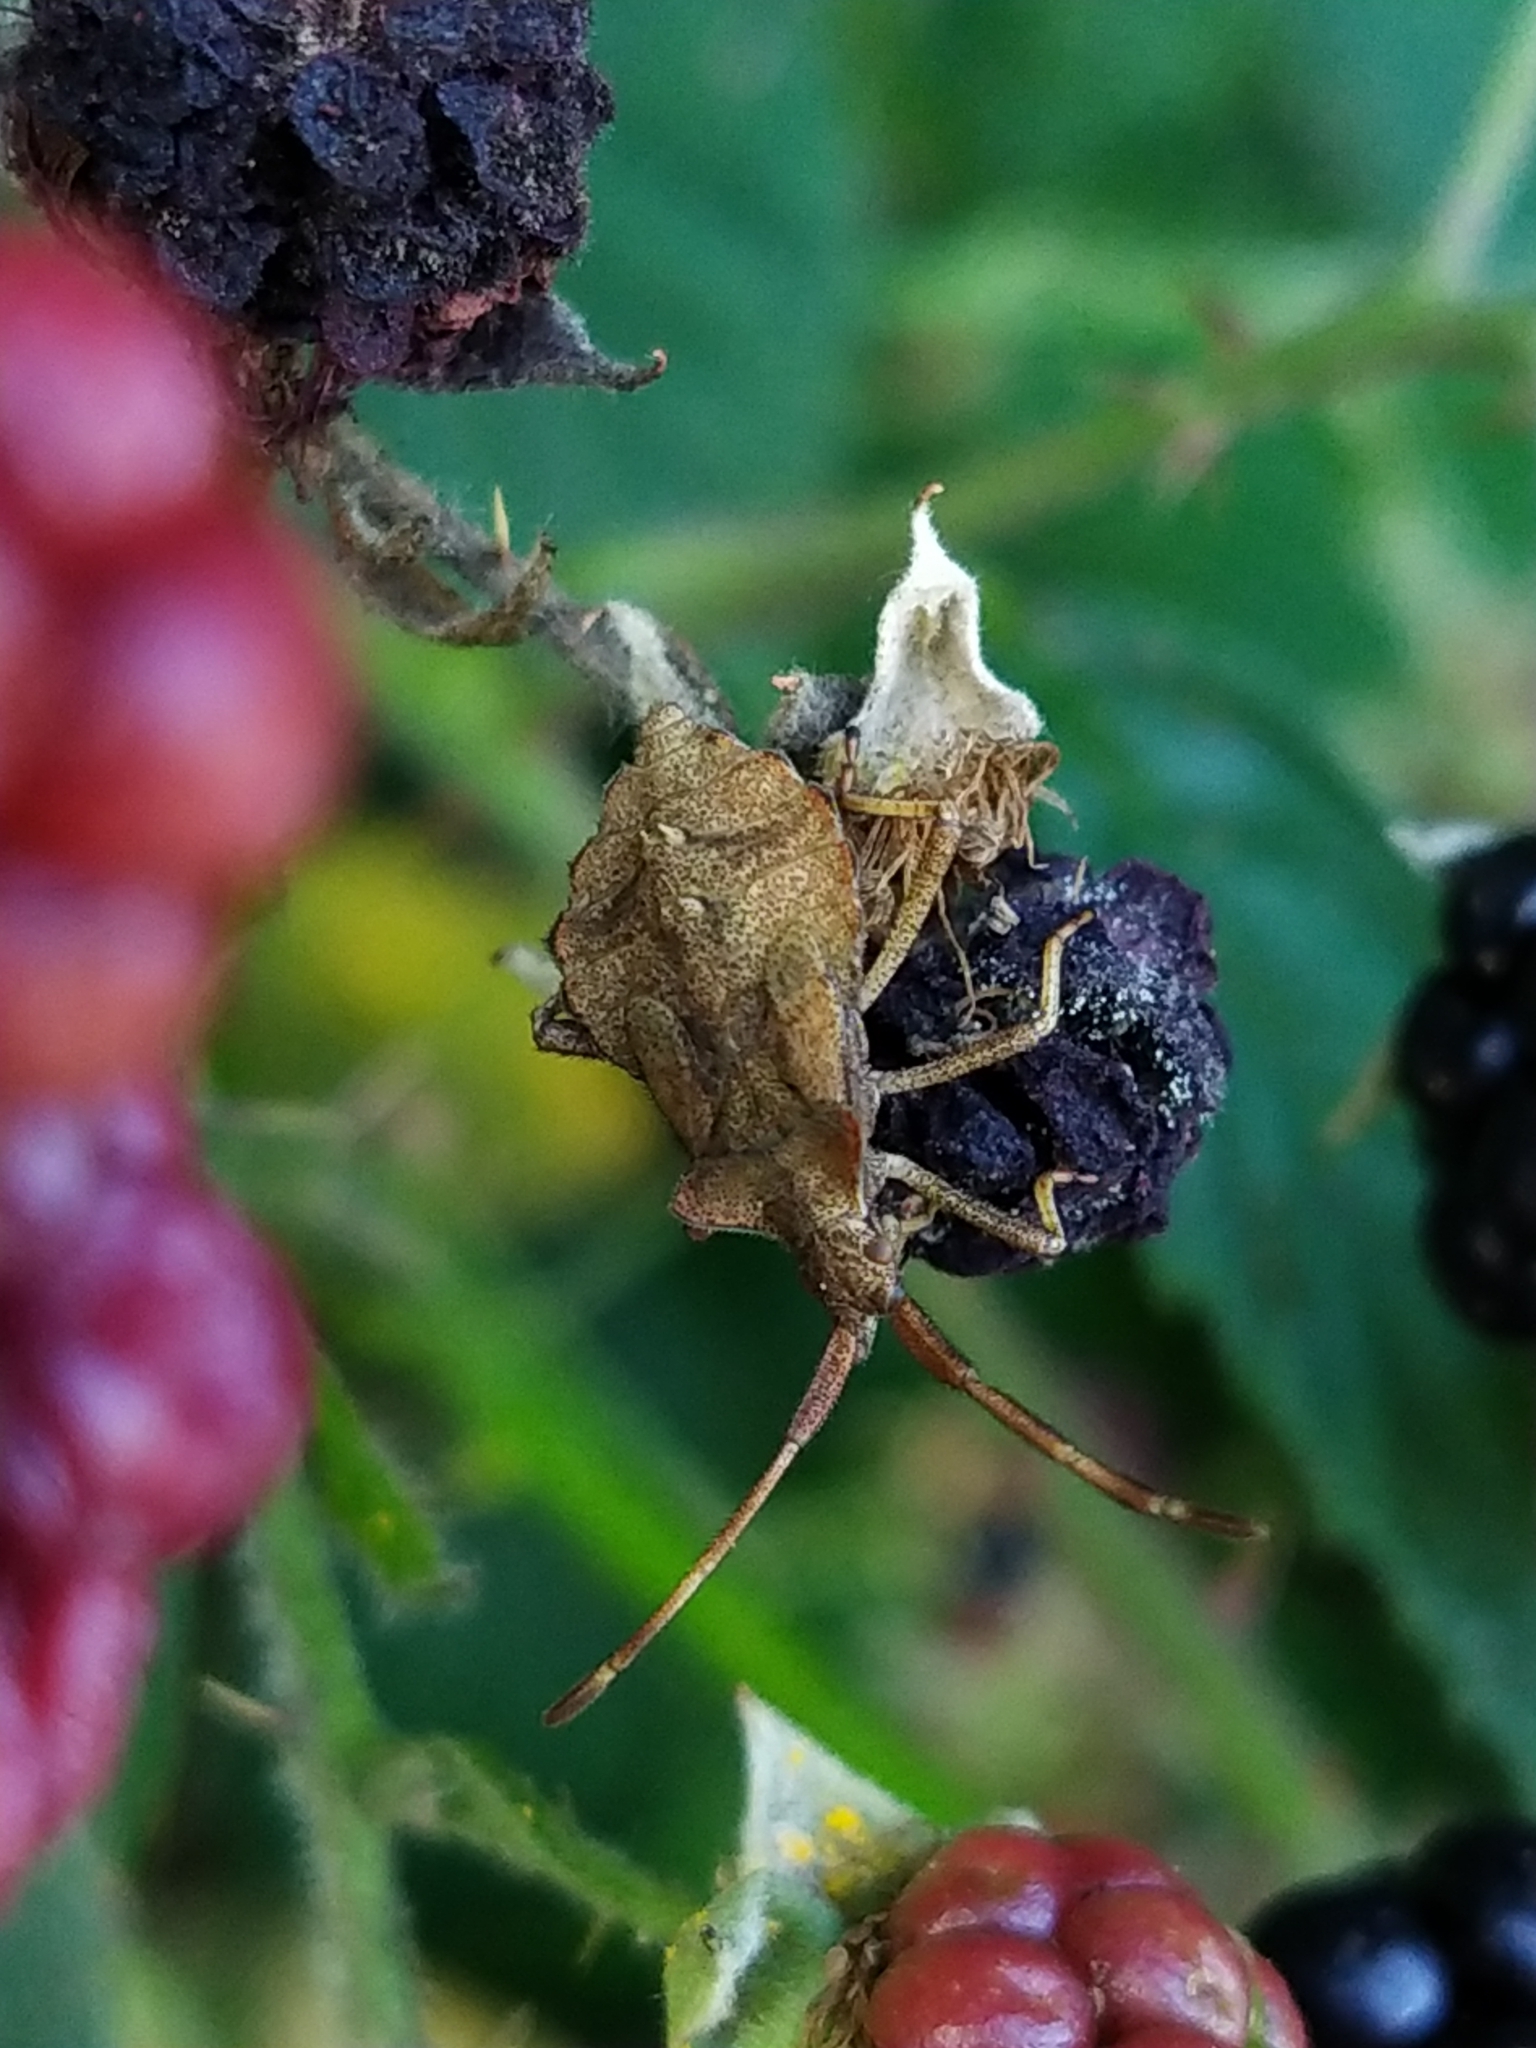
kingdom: Animalia
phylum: Arthropoda
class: Insecta
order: Hemiptera
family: Coreidae
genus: Coreus
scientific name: Coreus marginatus
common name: Dock bug
